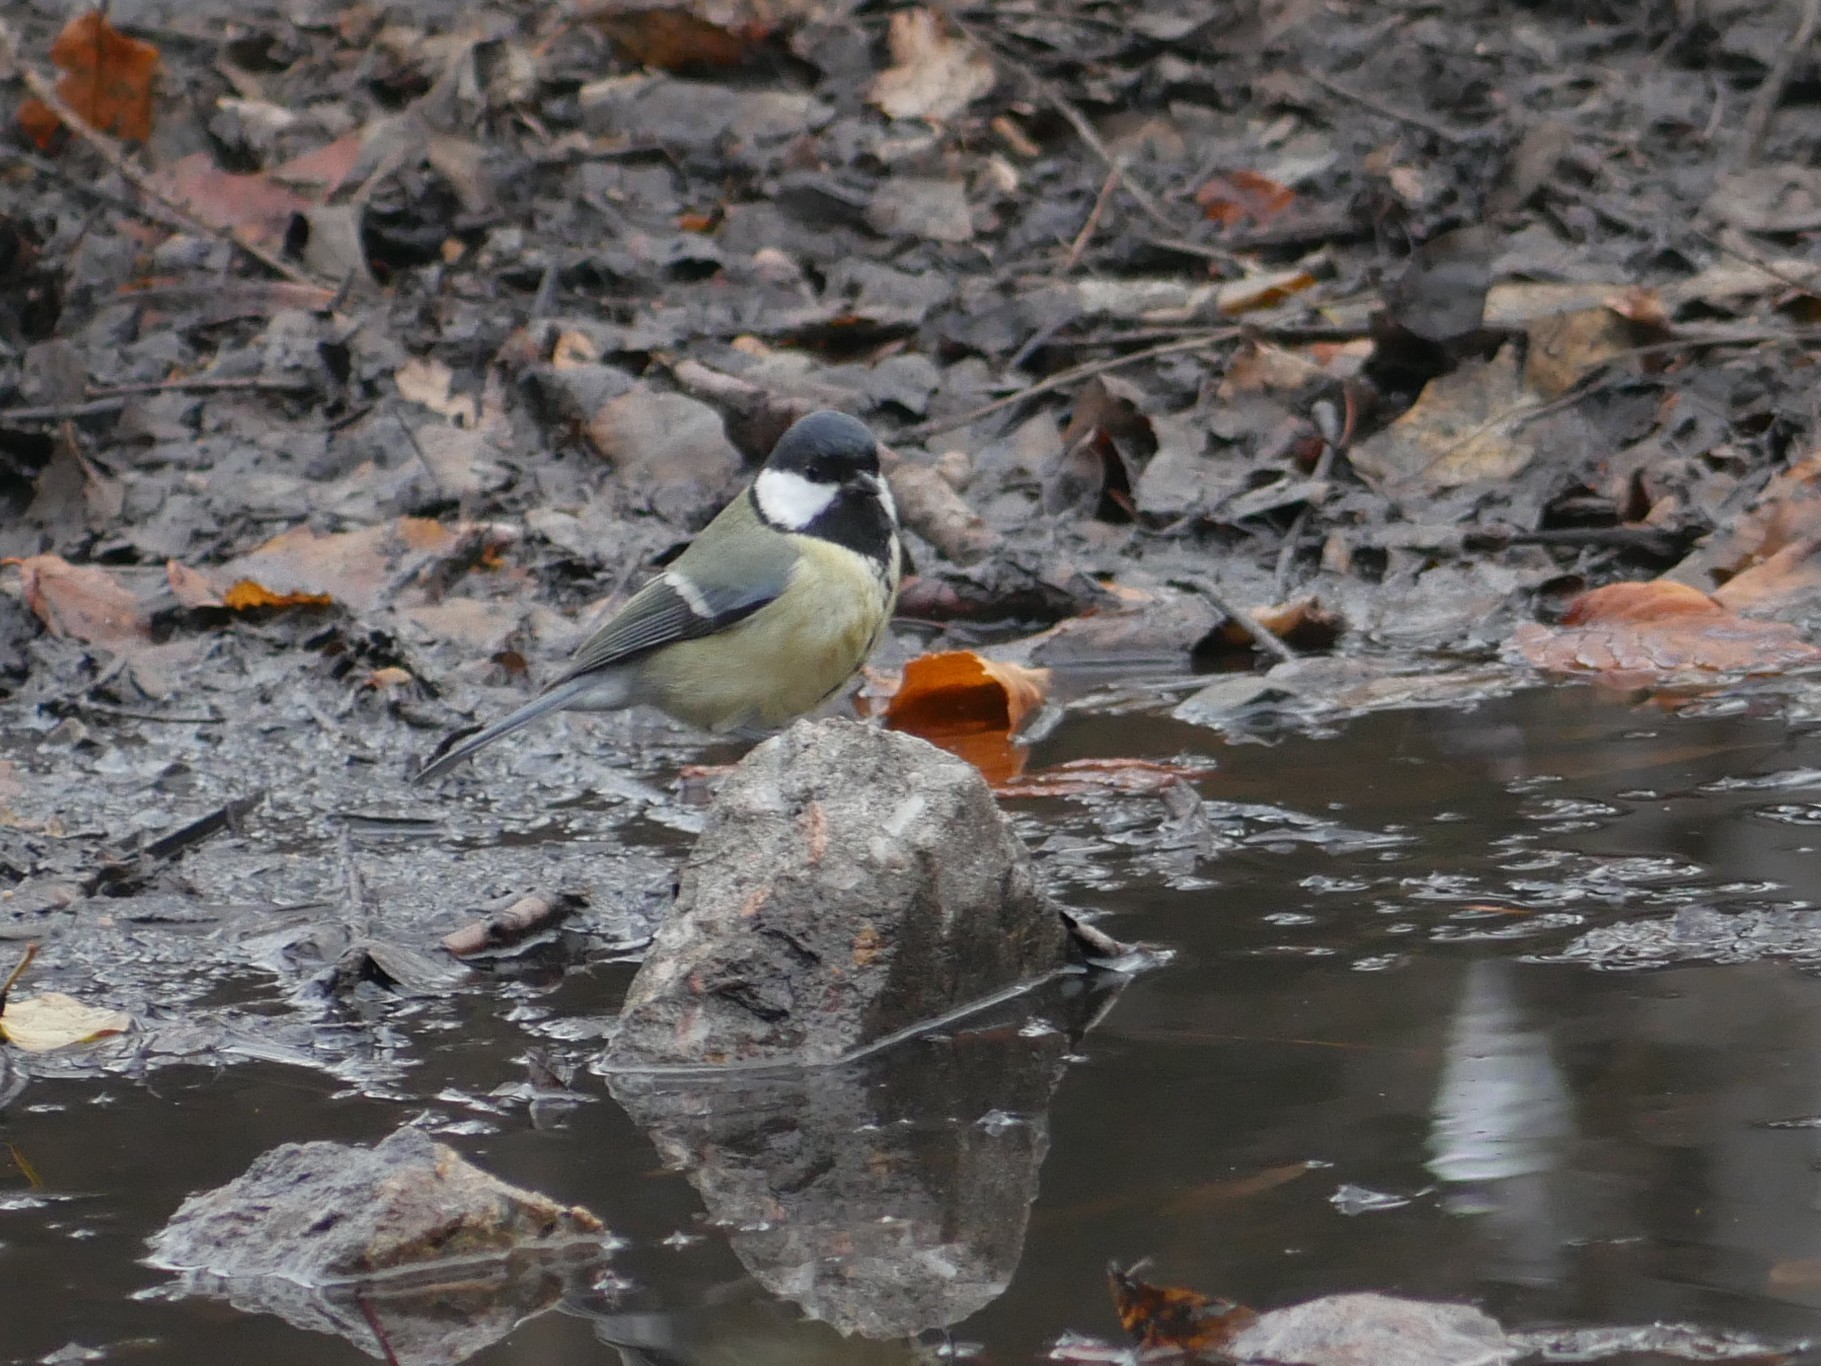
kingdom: Animalia
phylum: Chordata
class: Aves
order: Passeriformes
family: Paridae
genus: Parus
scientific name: Parus major
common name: Great tit
